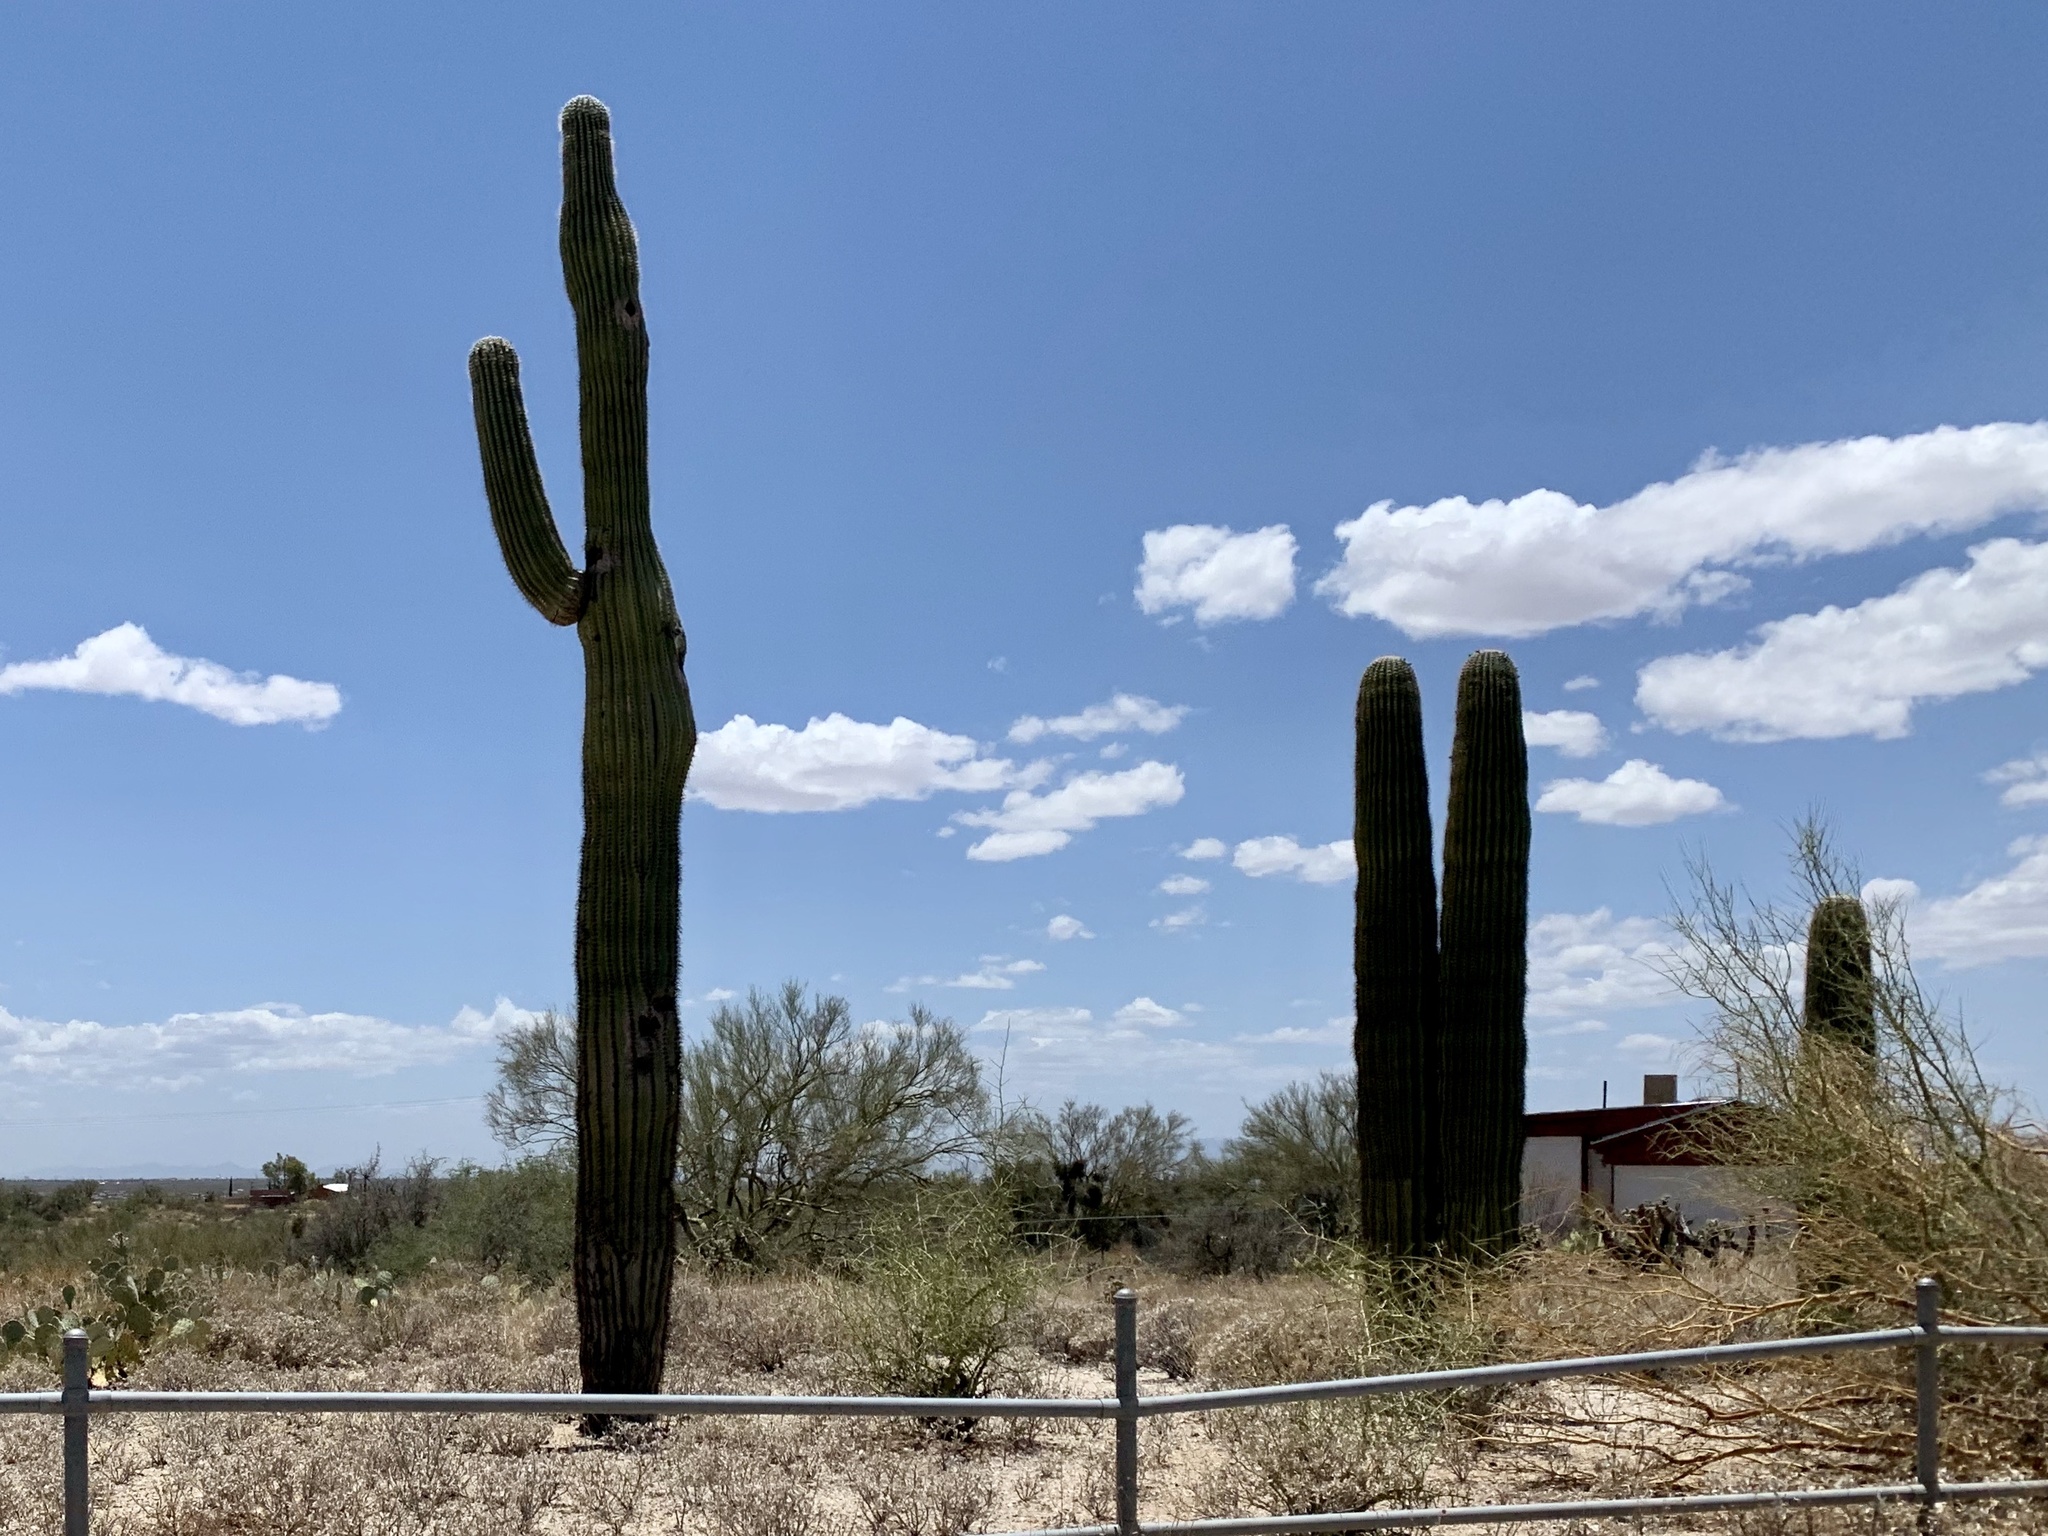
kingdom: Plantae
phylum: Tracheophyta
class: Magnoliopsida
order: Caryophyllales
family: Cactaceae
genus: Carnegiea
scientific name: Carnegiea gigantea
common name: Saguaro
